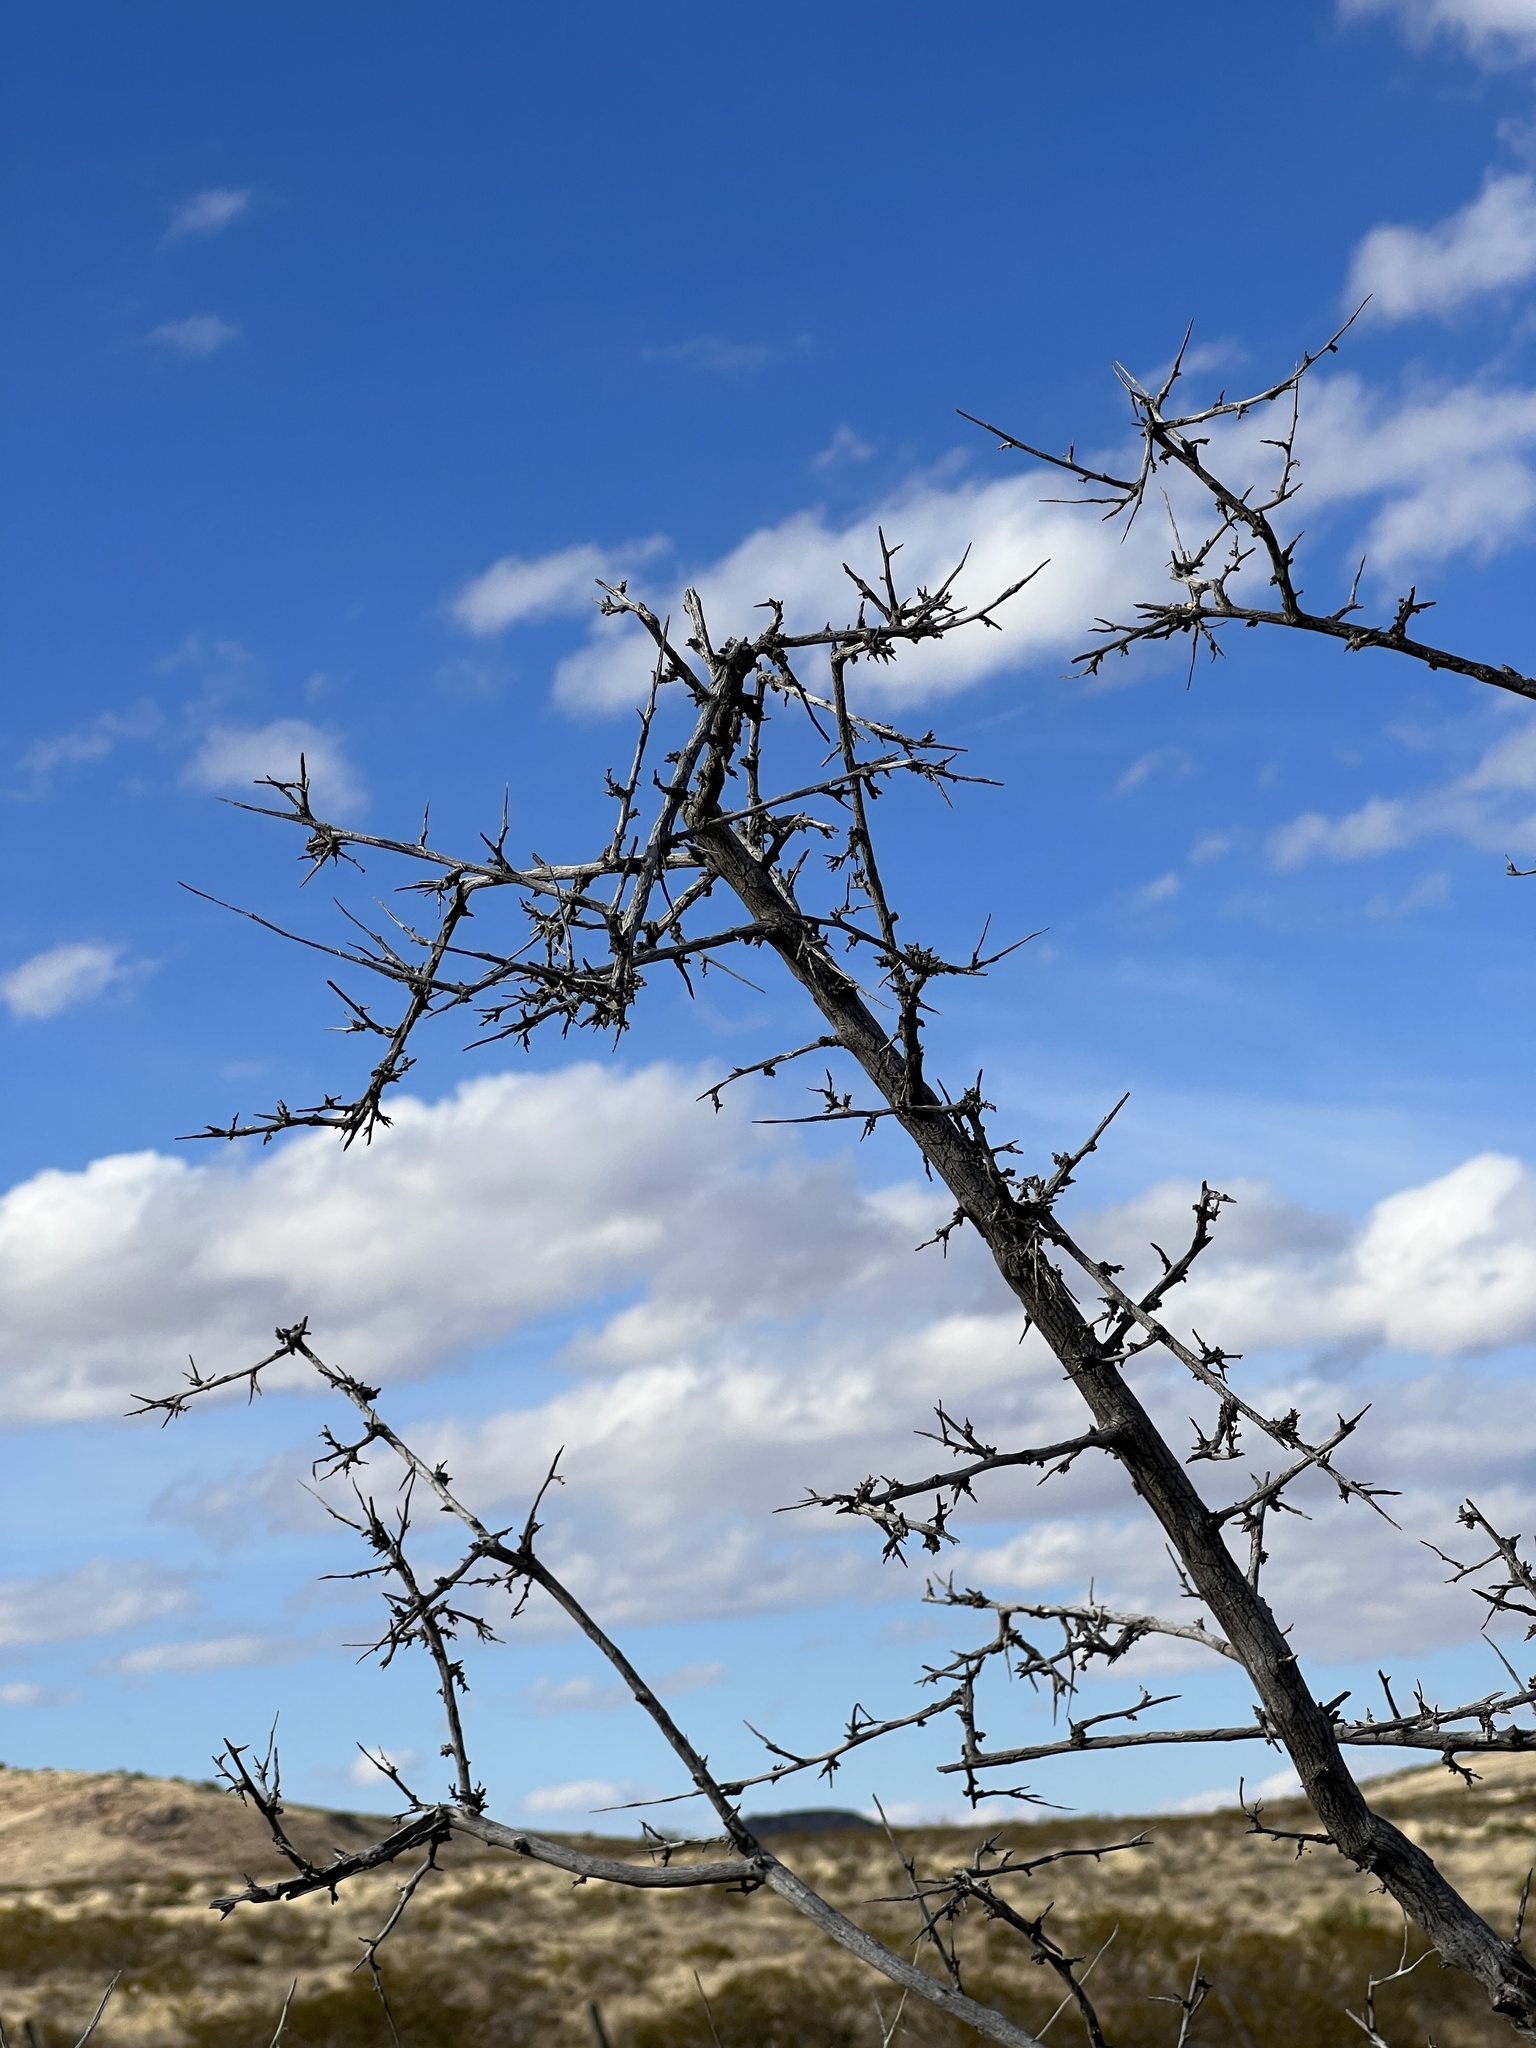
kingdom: Plantae
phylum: Tracheophyta
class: Magnoliopsida
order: Fabales
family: Fabaceae
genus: Prosopis
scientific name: Prosopis glandulosa
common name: Honey mesquite
